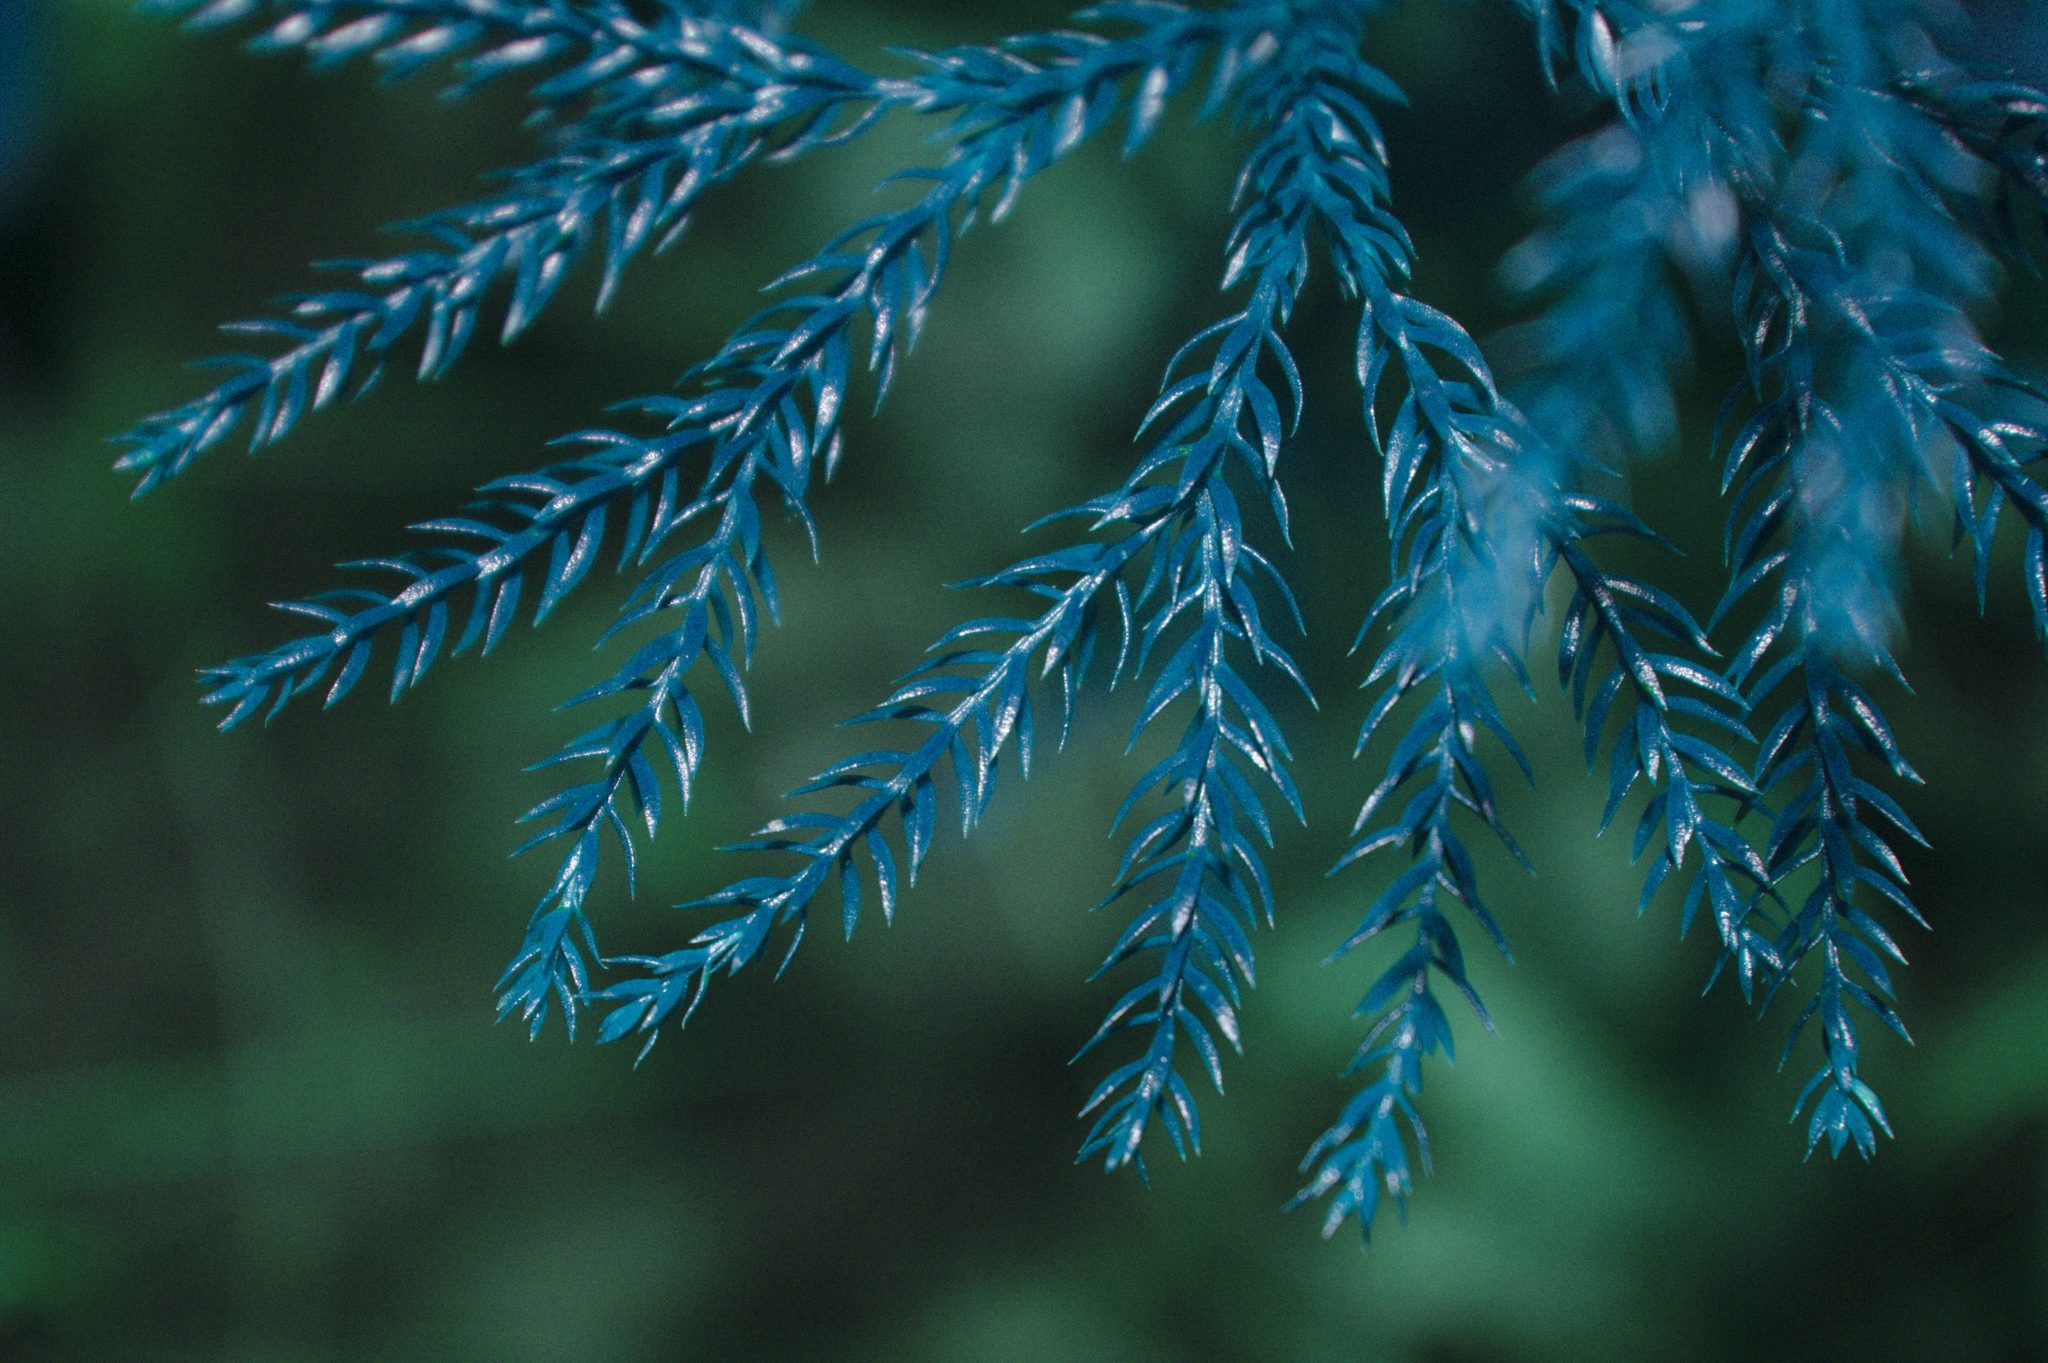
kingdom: Plantae
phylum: Tracheophyta
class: Lycopodiopsida
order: Lycopodiales
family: Lycopodiaceae
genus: Dendrolycopodium
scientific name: Dendrolycopodium hickeyi
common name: Hickey's clubmoss
